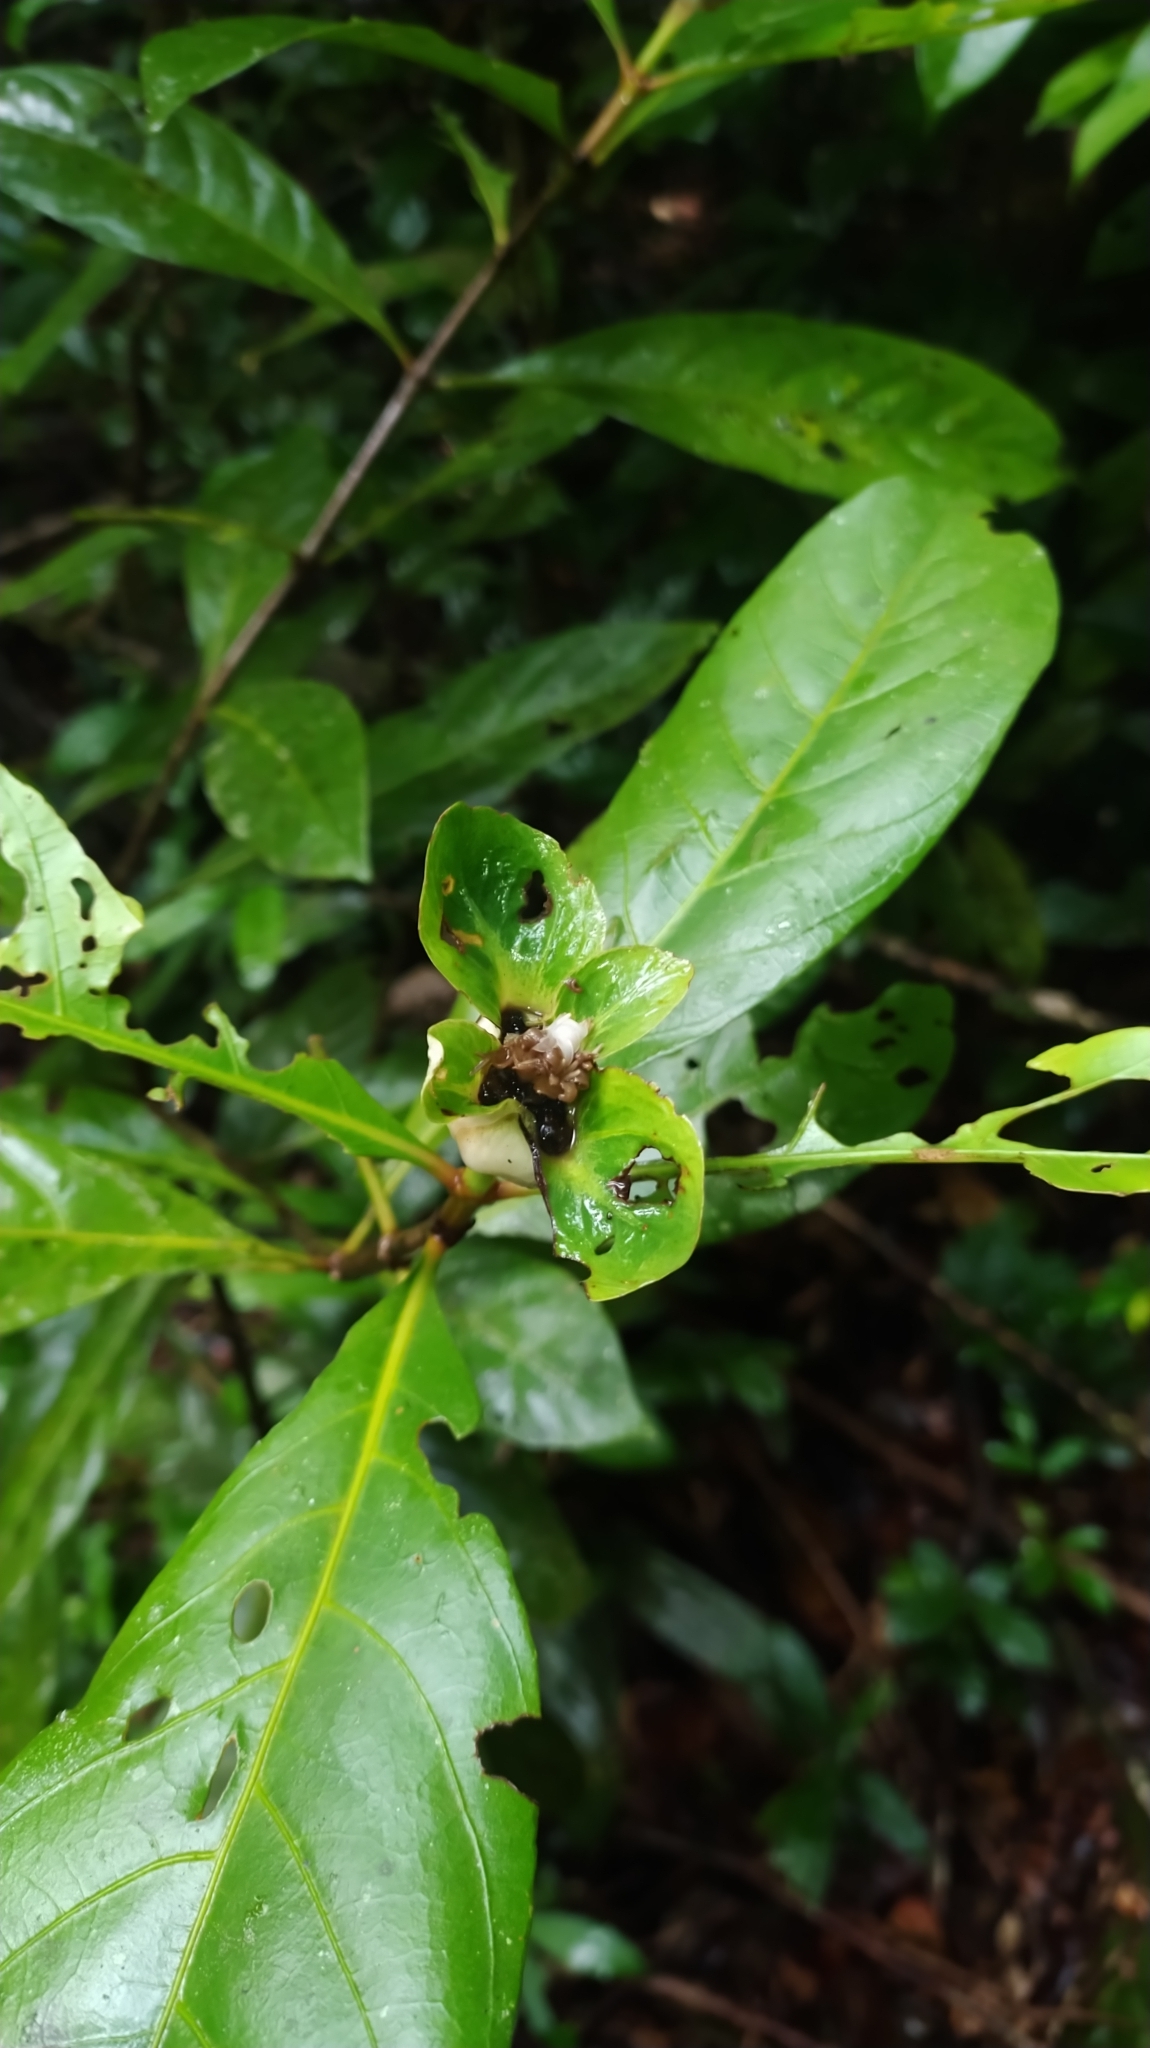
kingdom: Plantae
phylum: Tracheophyta
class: Magnoliopsida
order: Gentianales
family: Rubiaceae
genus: Carapichea
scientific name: Carapichea guianensis
